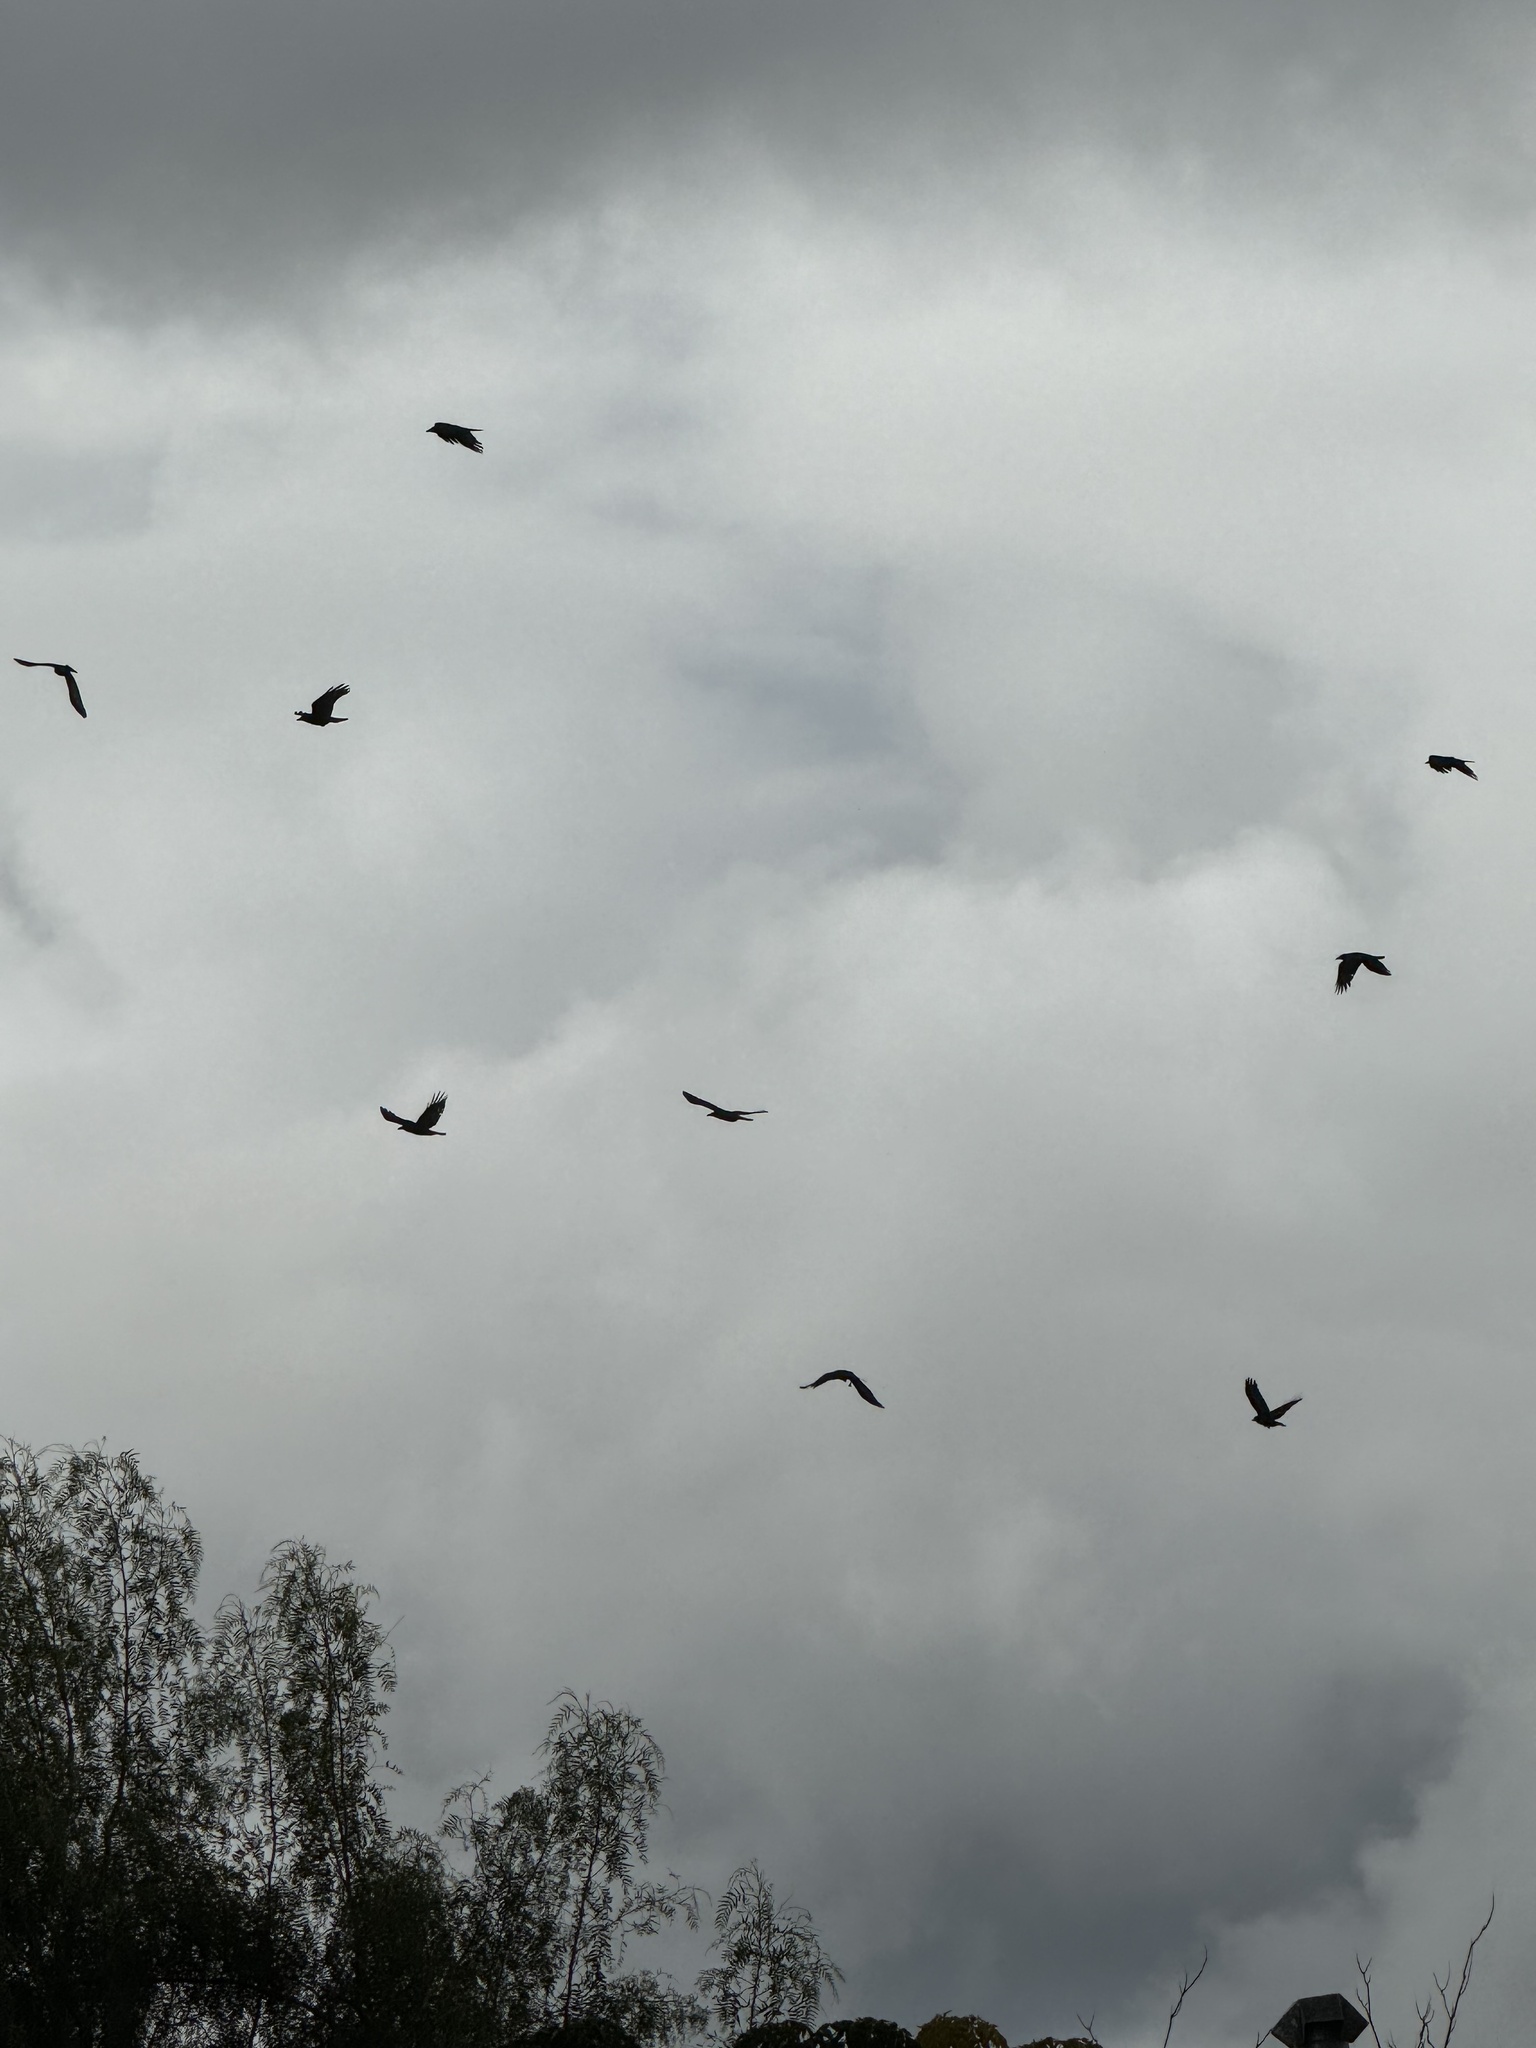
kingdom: Animalia
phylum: Chordata
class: Aves
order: Passeriformes
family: Corvidae
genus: Corvus
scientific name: Corvus brachyrhynchos
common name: American crow
